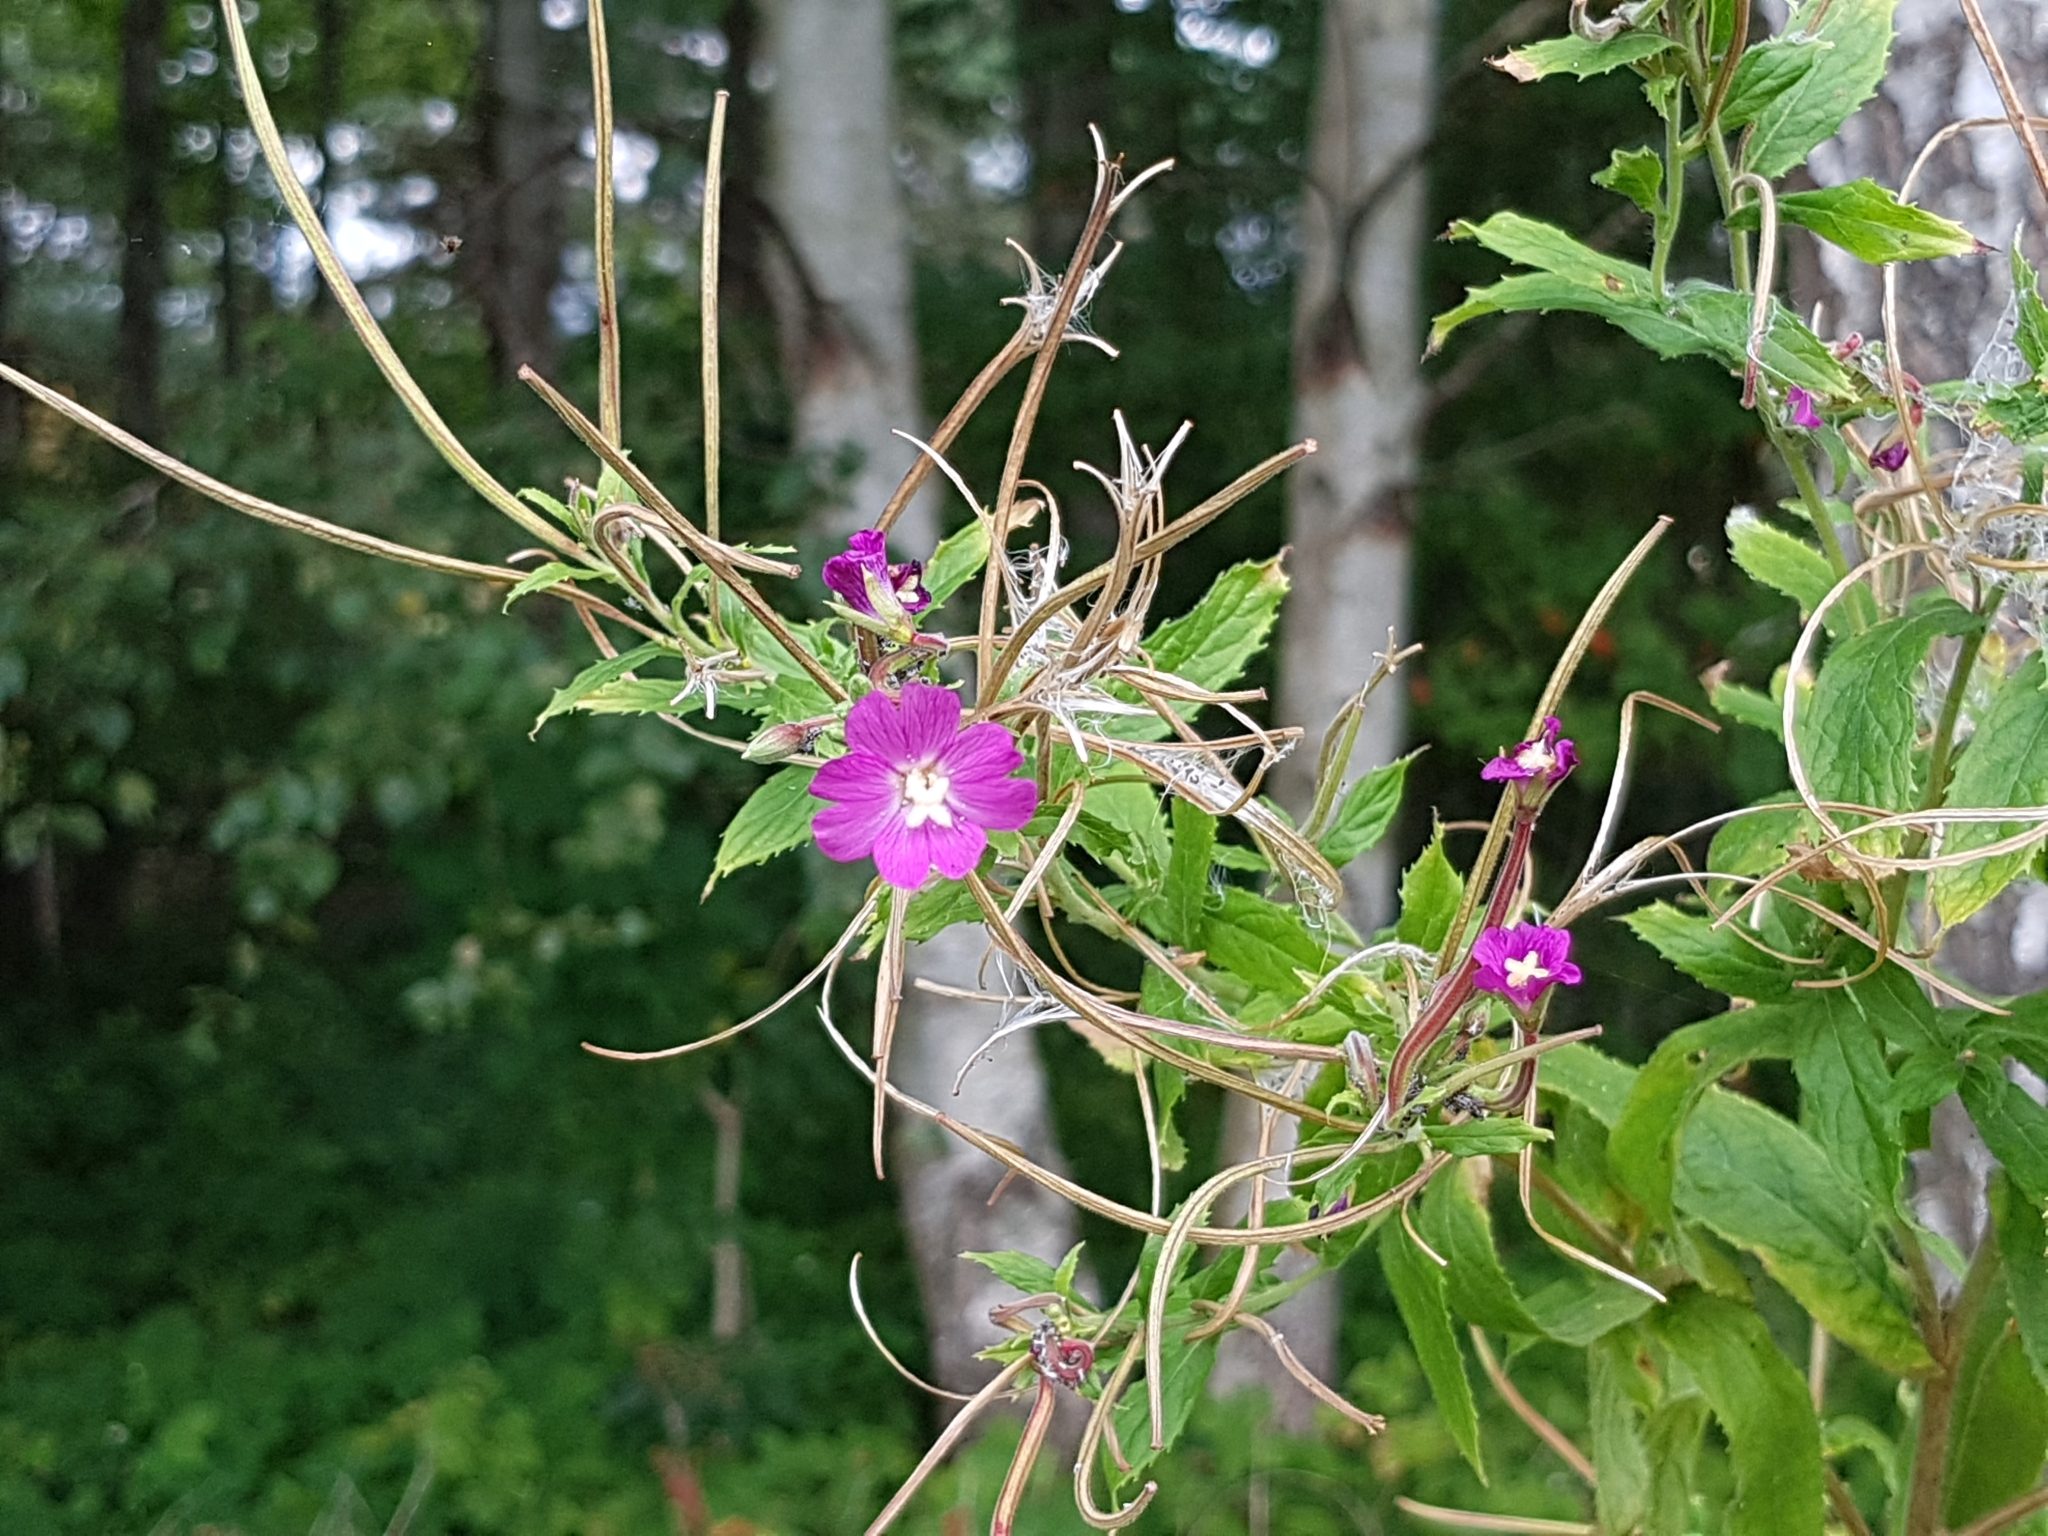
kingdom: Plantae
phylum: Tracheophyta
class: Magnoliopsida
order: Myrtales
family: Onagraceae
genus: Epilobium
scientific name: Epilobium hirsutum
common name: Great willowherb
